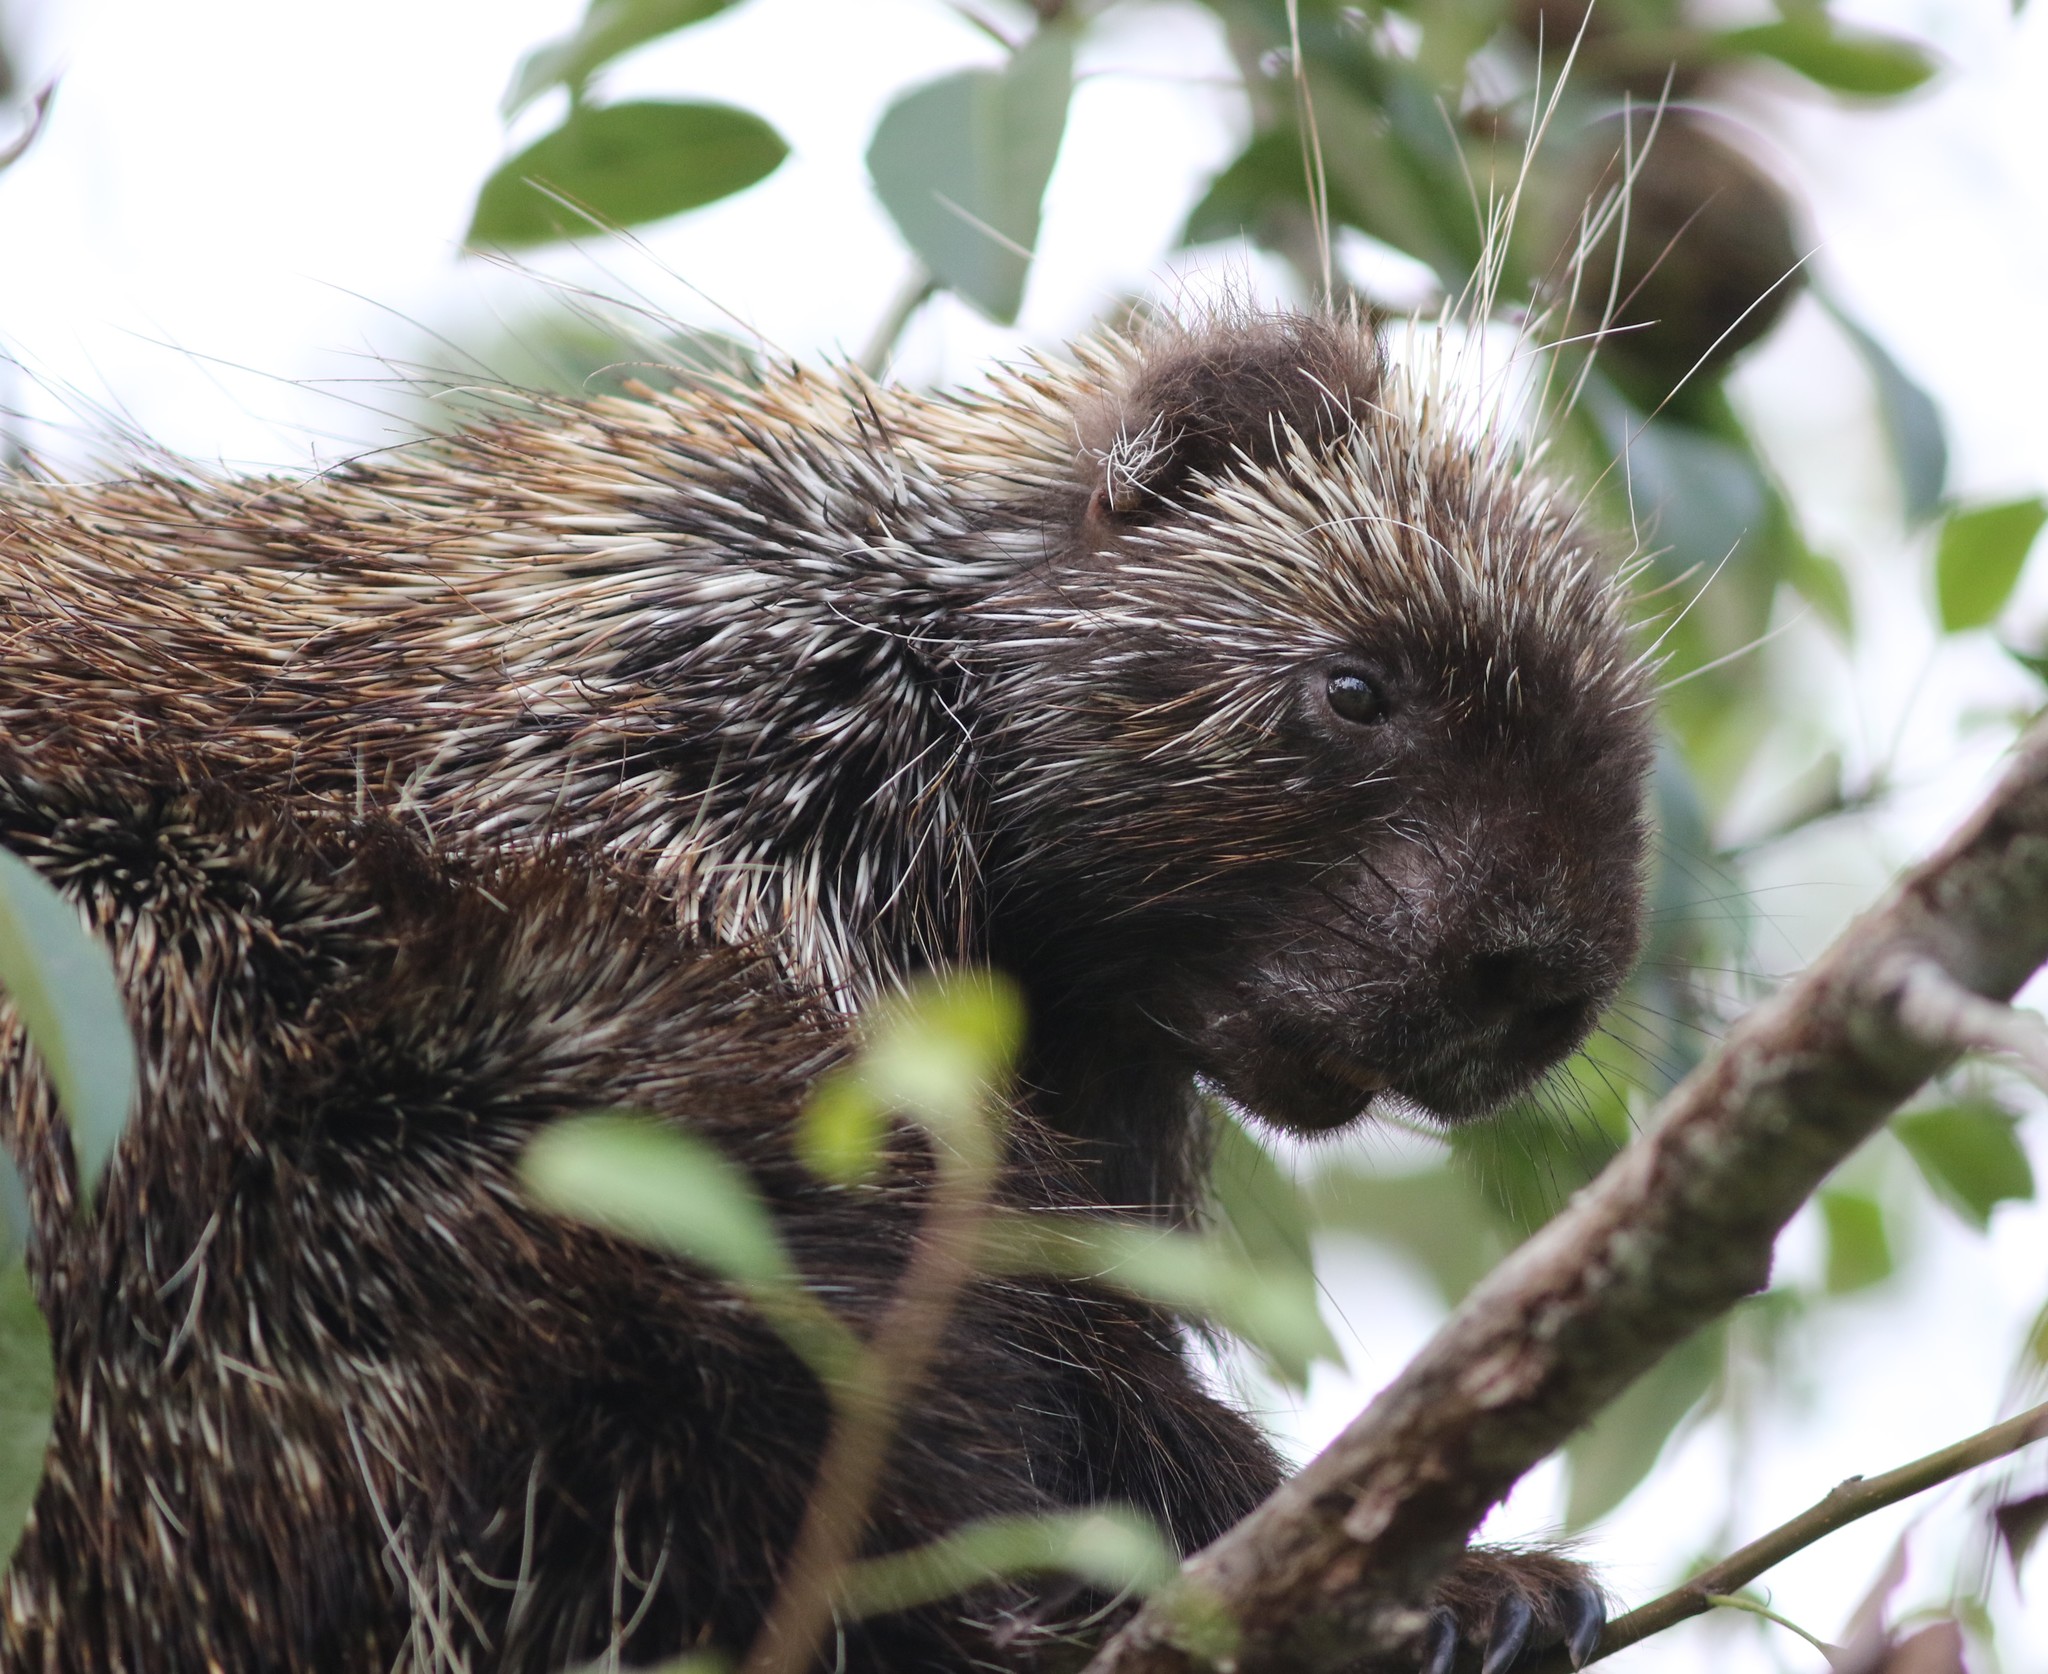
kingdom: Animalia
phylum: Chordata
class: Mammalia
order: Rodentia
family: Erethizontidae
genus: Erethizon
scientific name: Erethizon dorsatus
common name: North american porcupine
